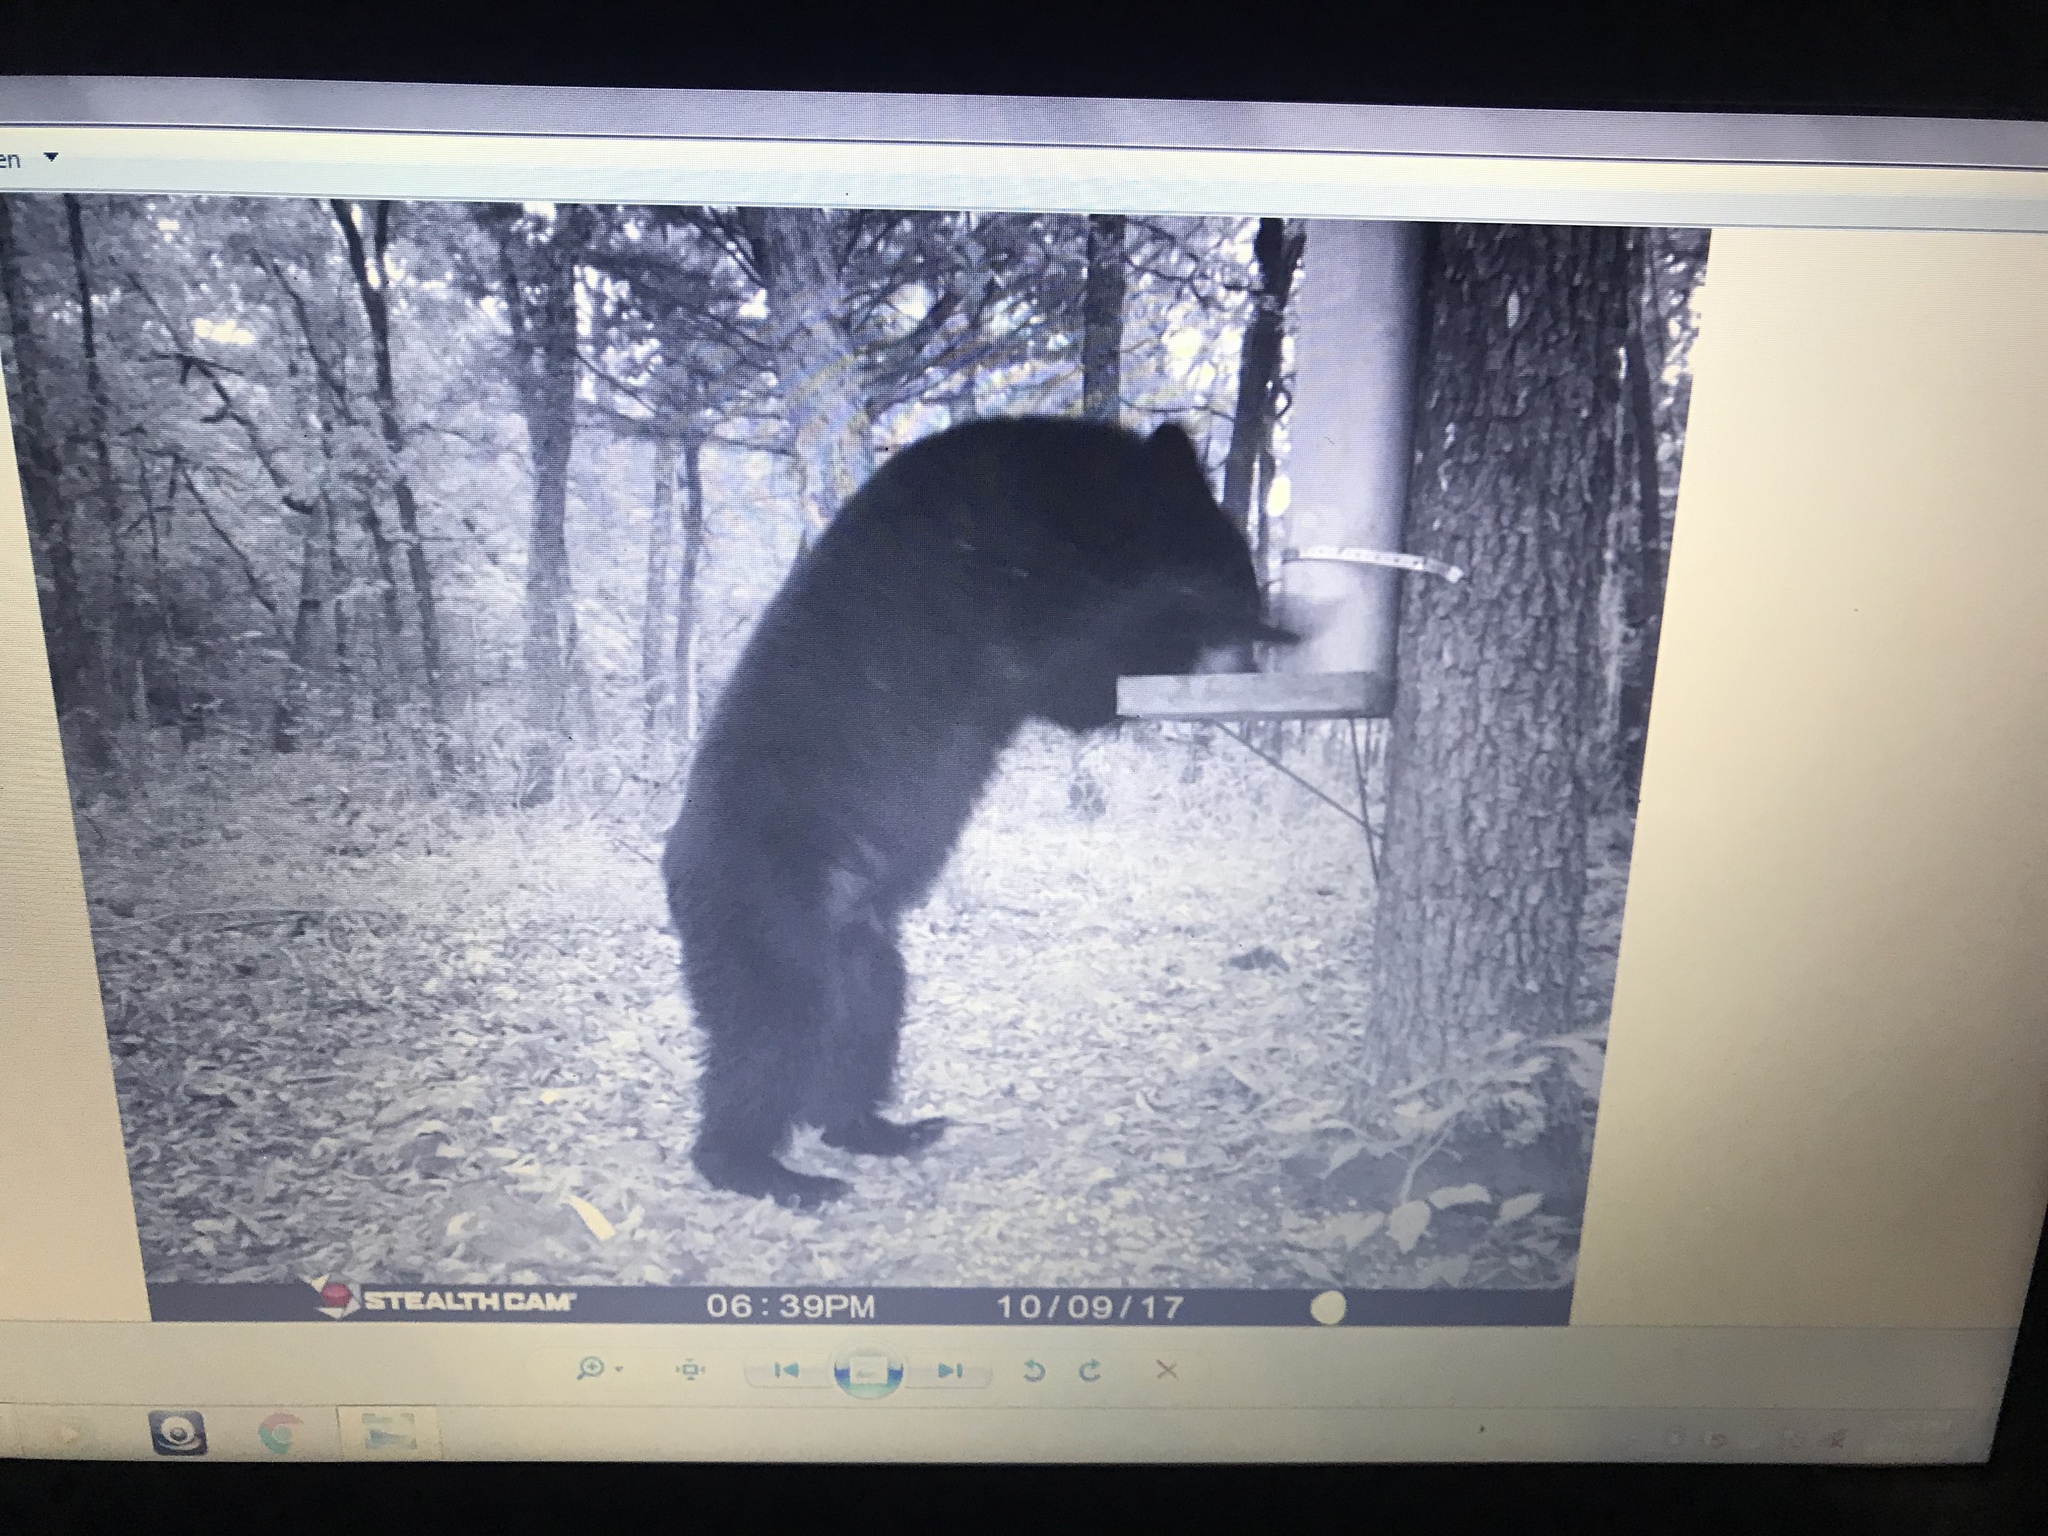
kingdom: Animalia
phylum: Chordata
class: Mammalia
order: Carnivora
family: Ursidae
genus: Ursus
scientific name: Ursus americanus
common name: American black bear
